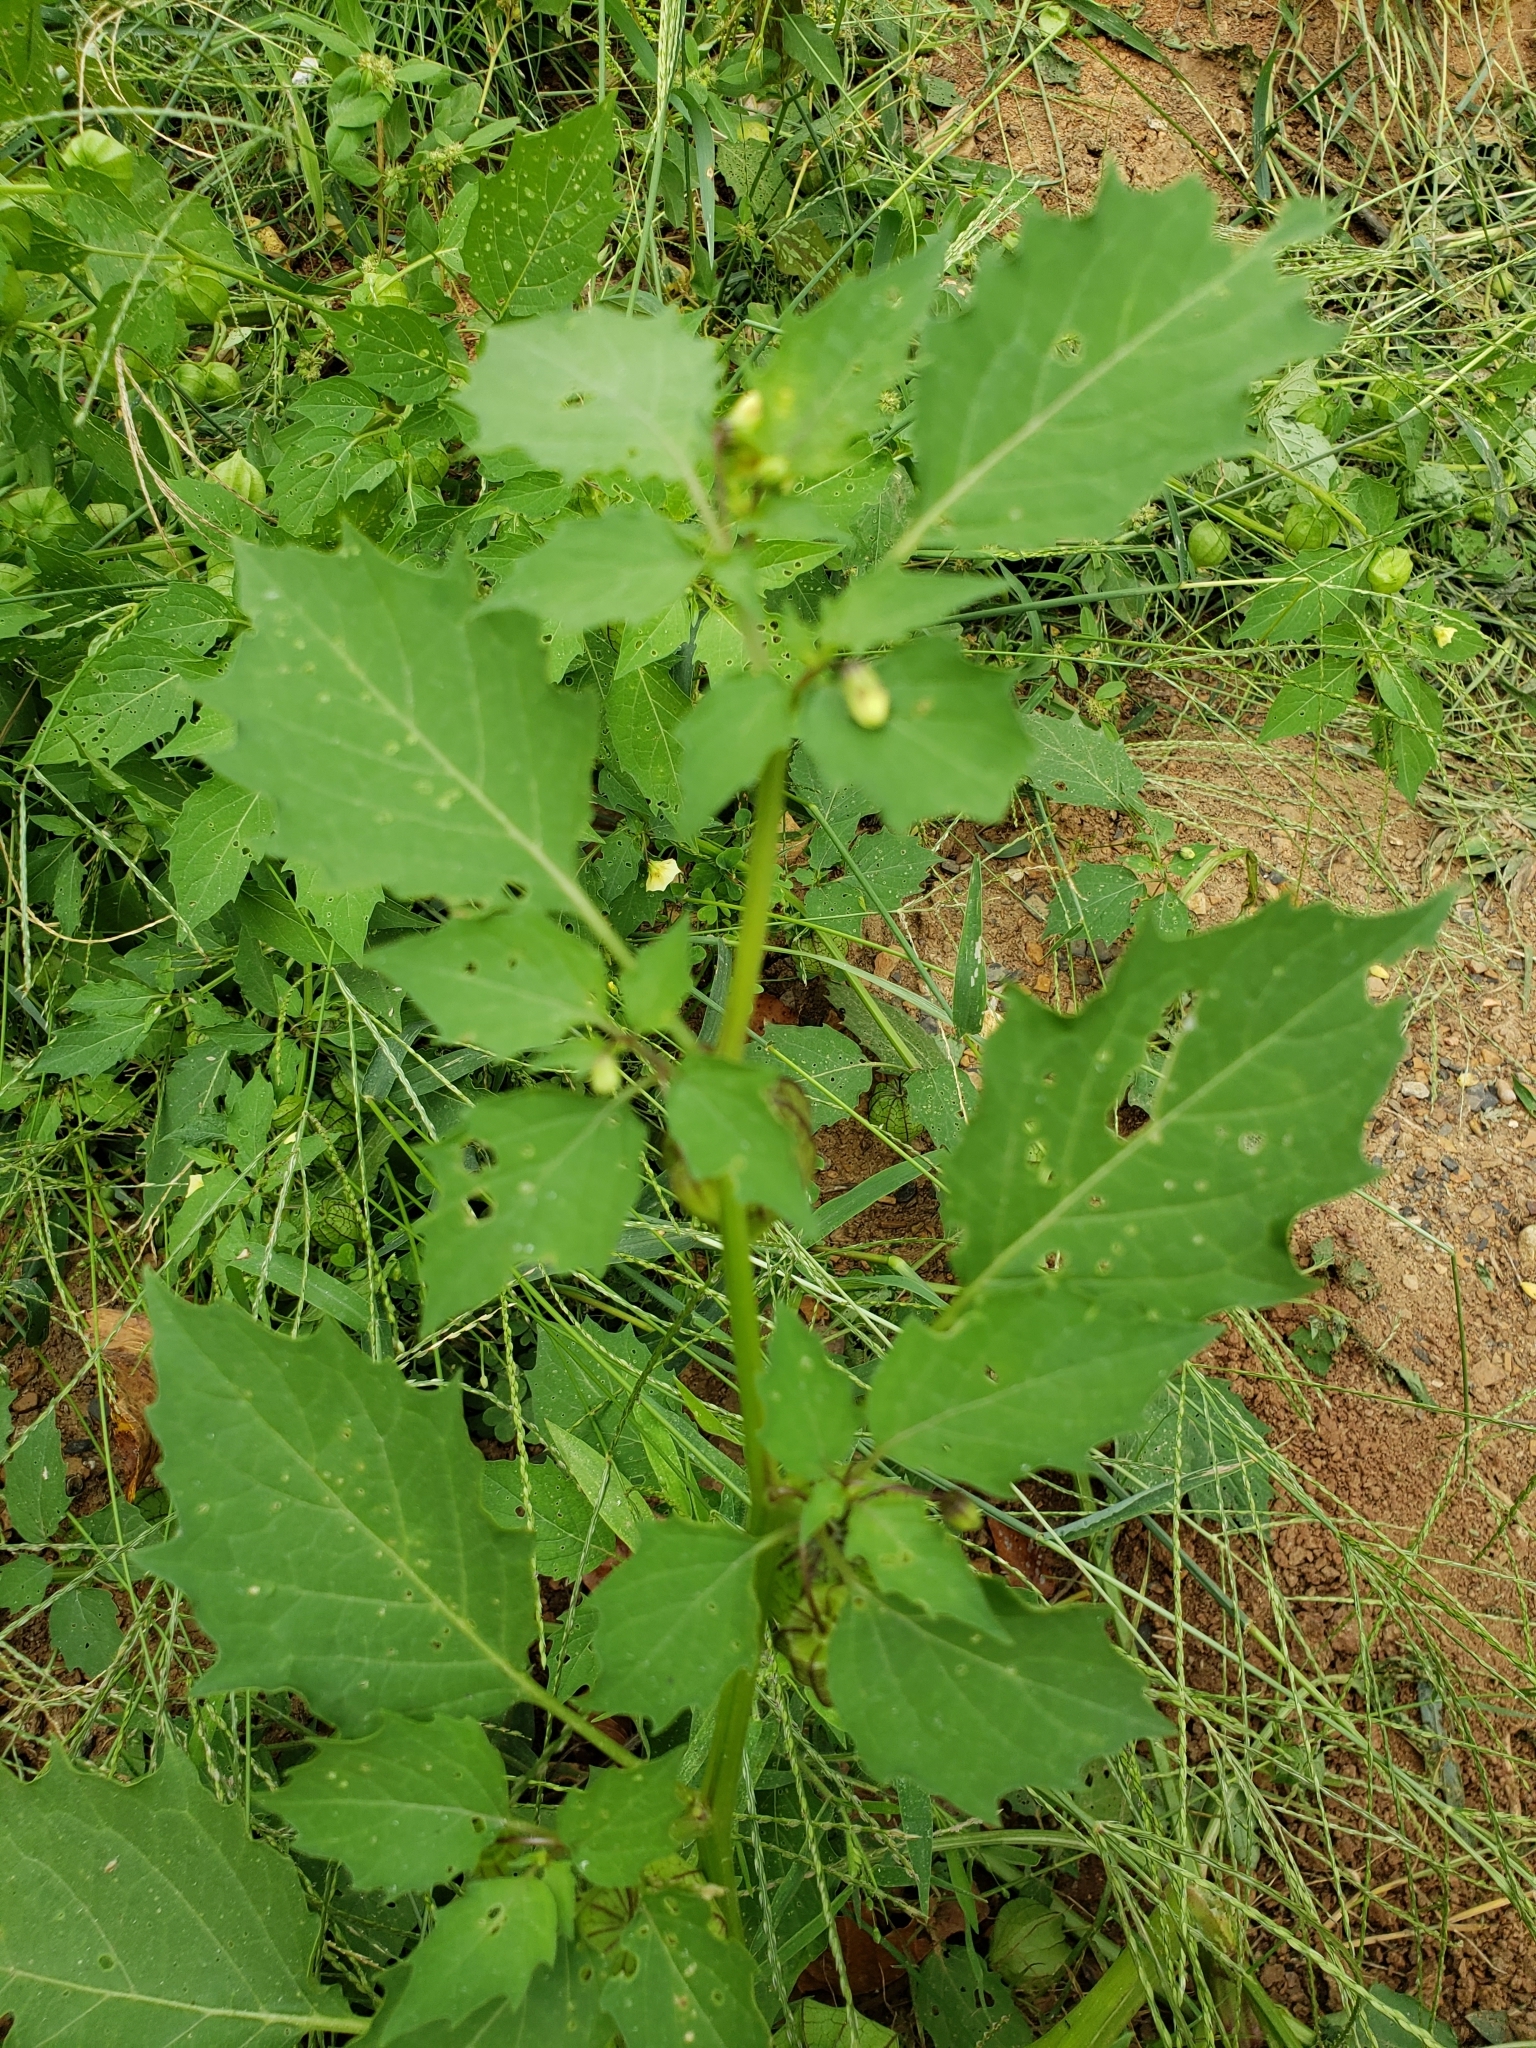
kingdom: Plantae
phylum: Tracheophyta
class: Magnoliopsida
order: Solanales
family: Solanaceae
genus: Physalis
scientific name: Physalis angulata
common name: Angular winter-cherry
